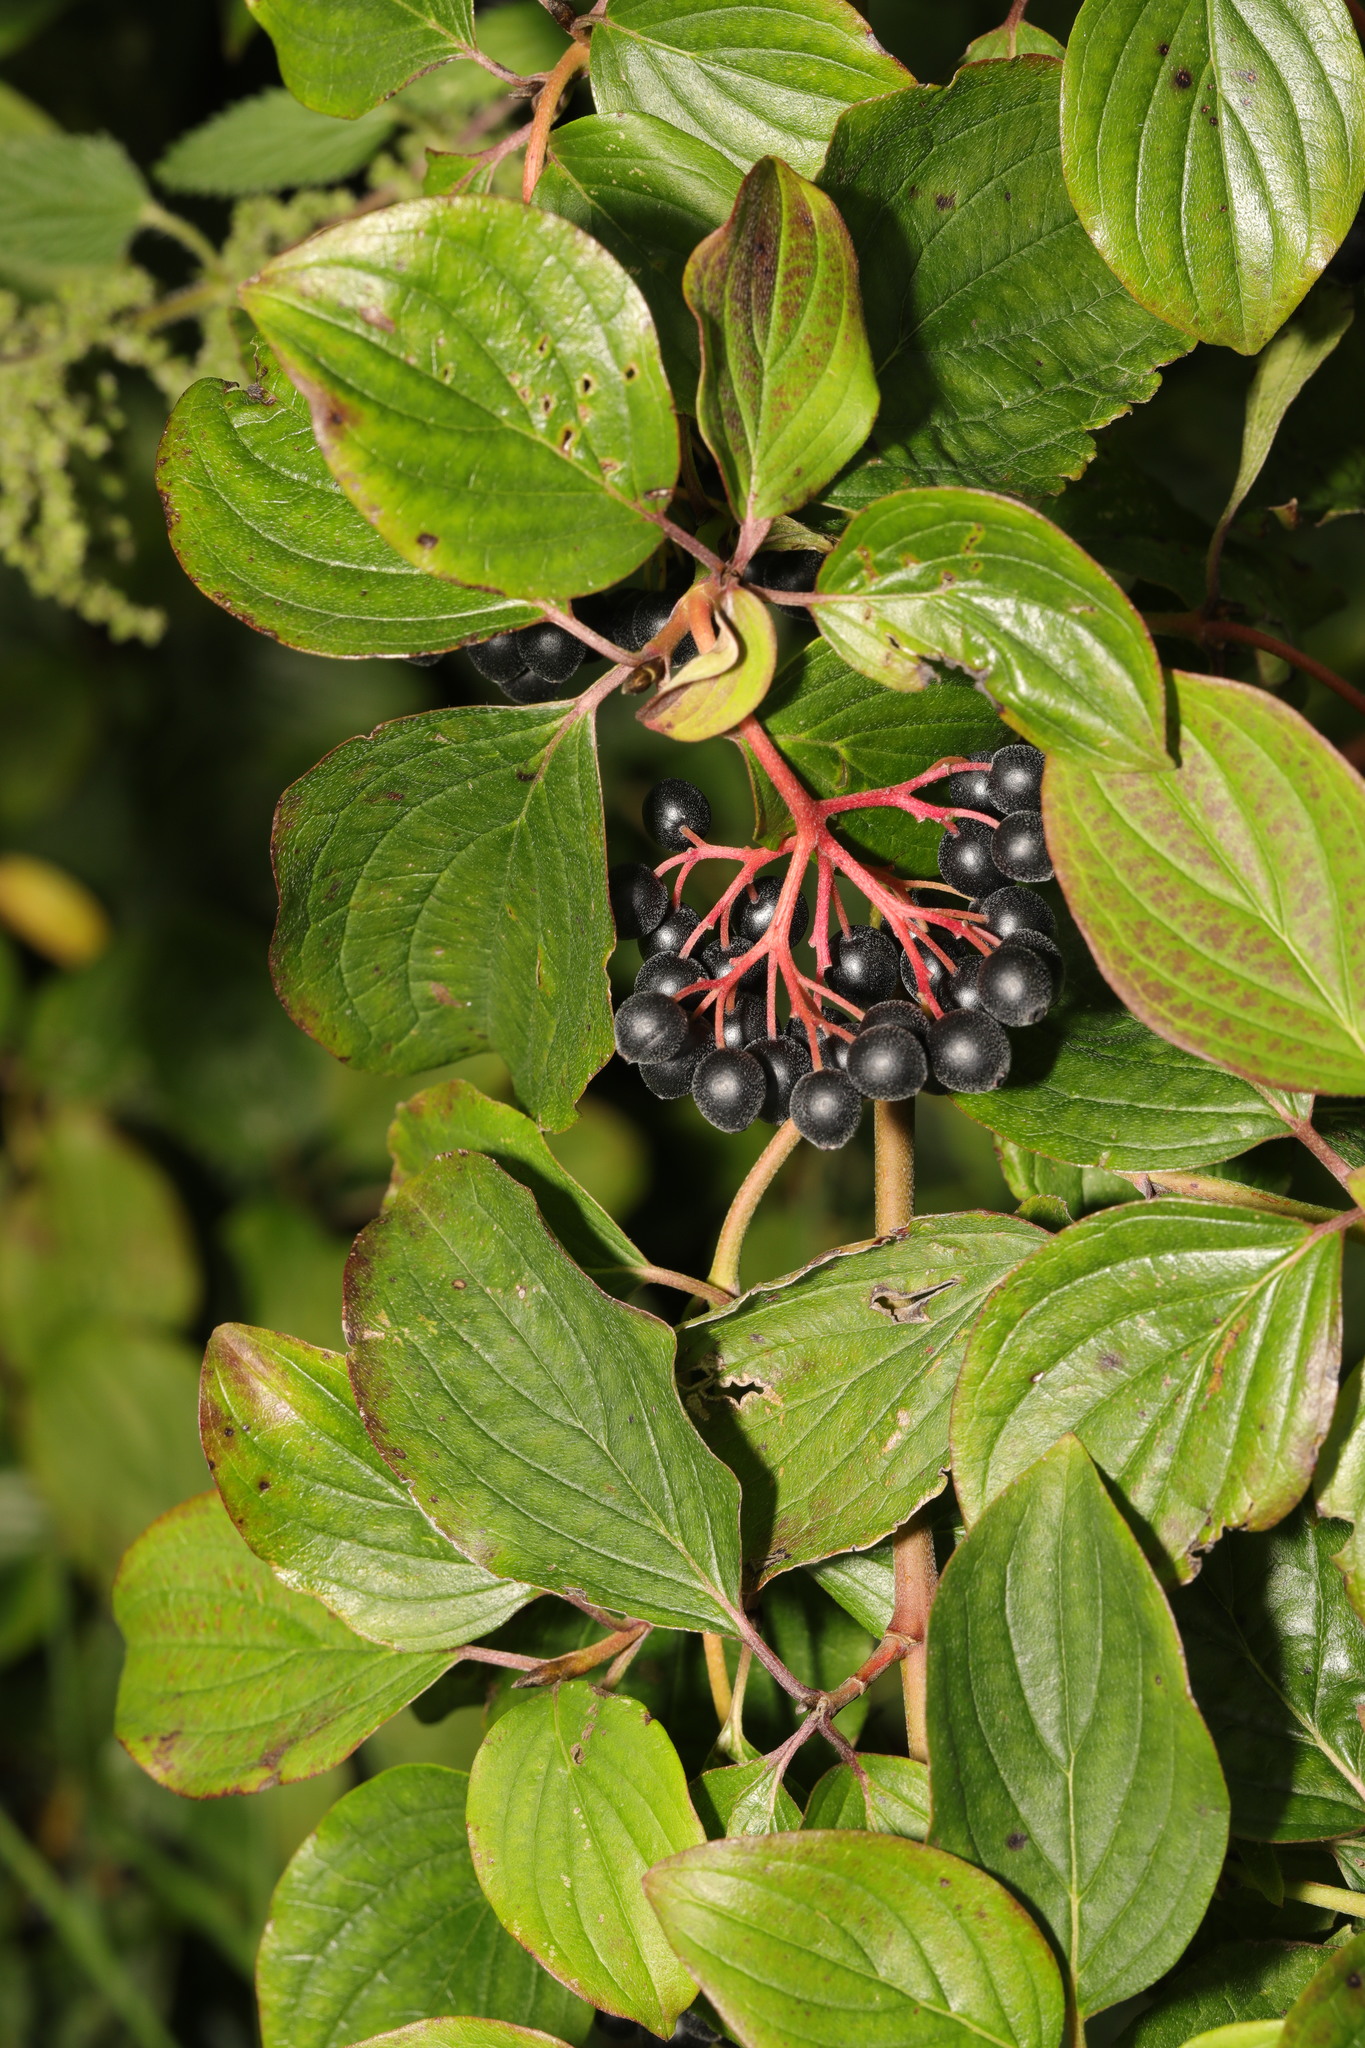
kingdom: Plantae
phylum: Tracheophyta
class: Magnoliopsida
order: Cornales
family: Cornaceae
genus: Cornus
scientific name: Cornus sanguinea
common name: Dogwood
